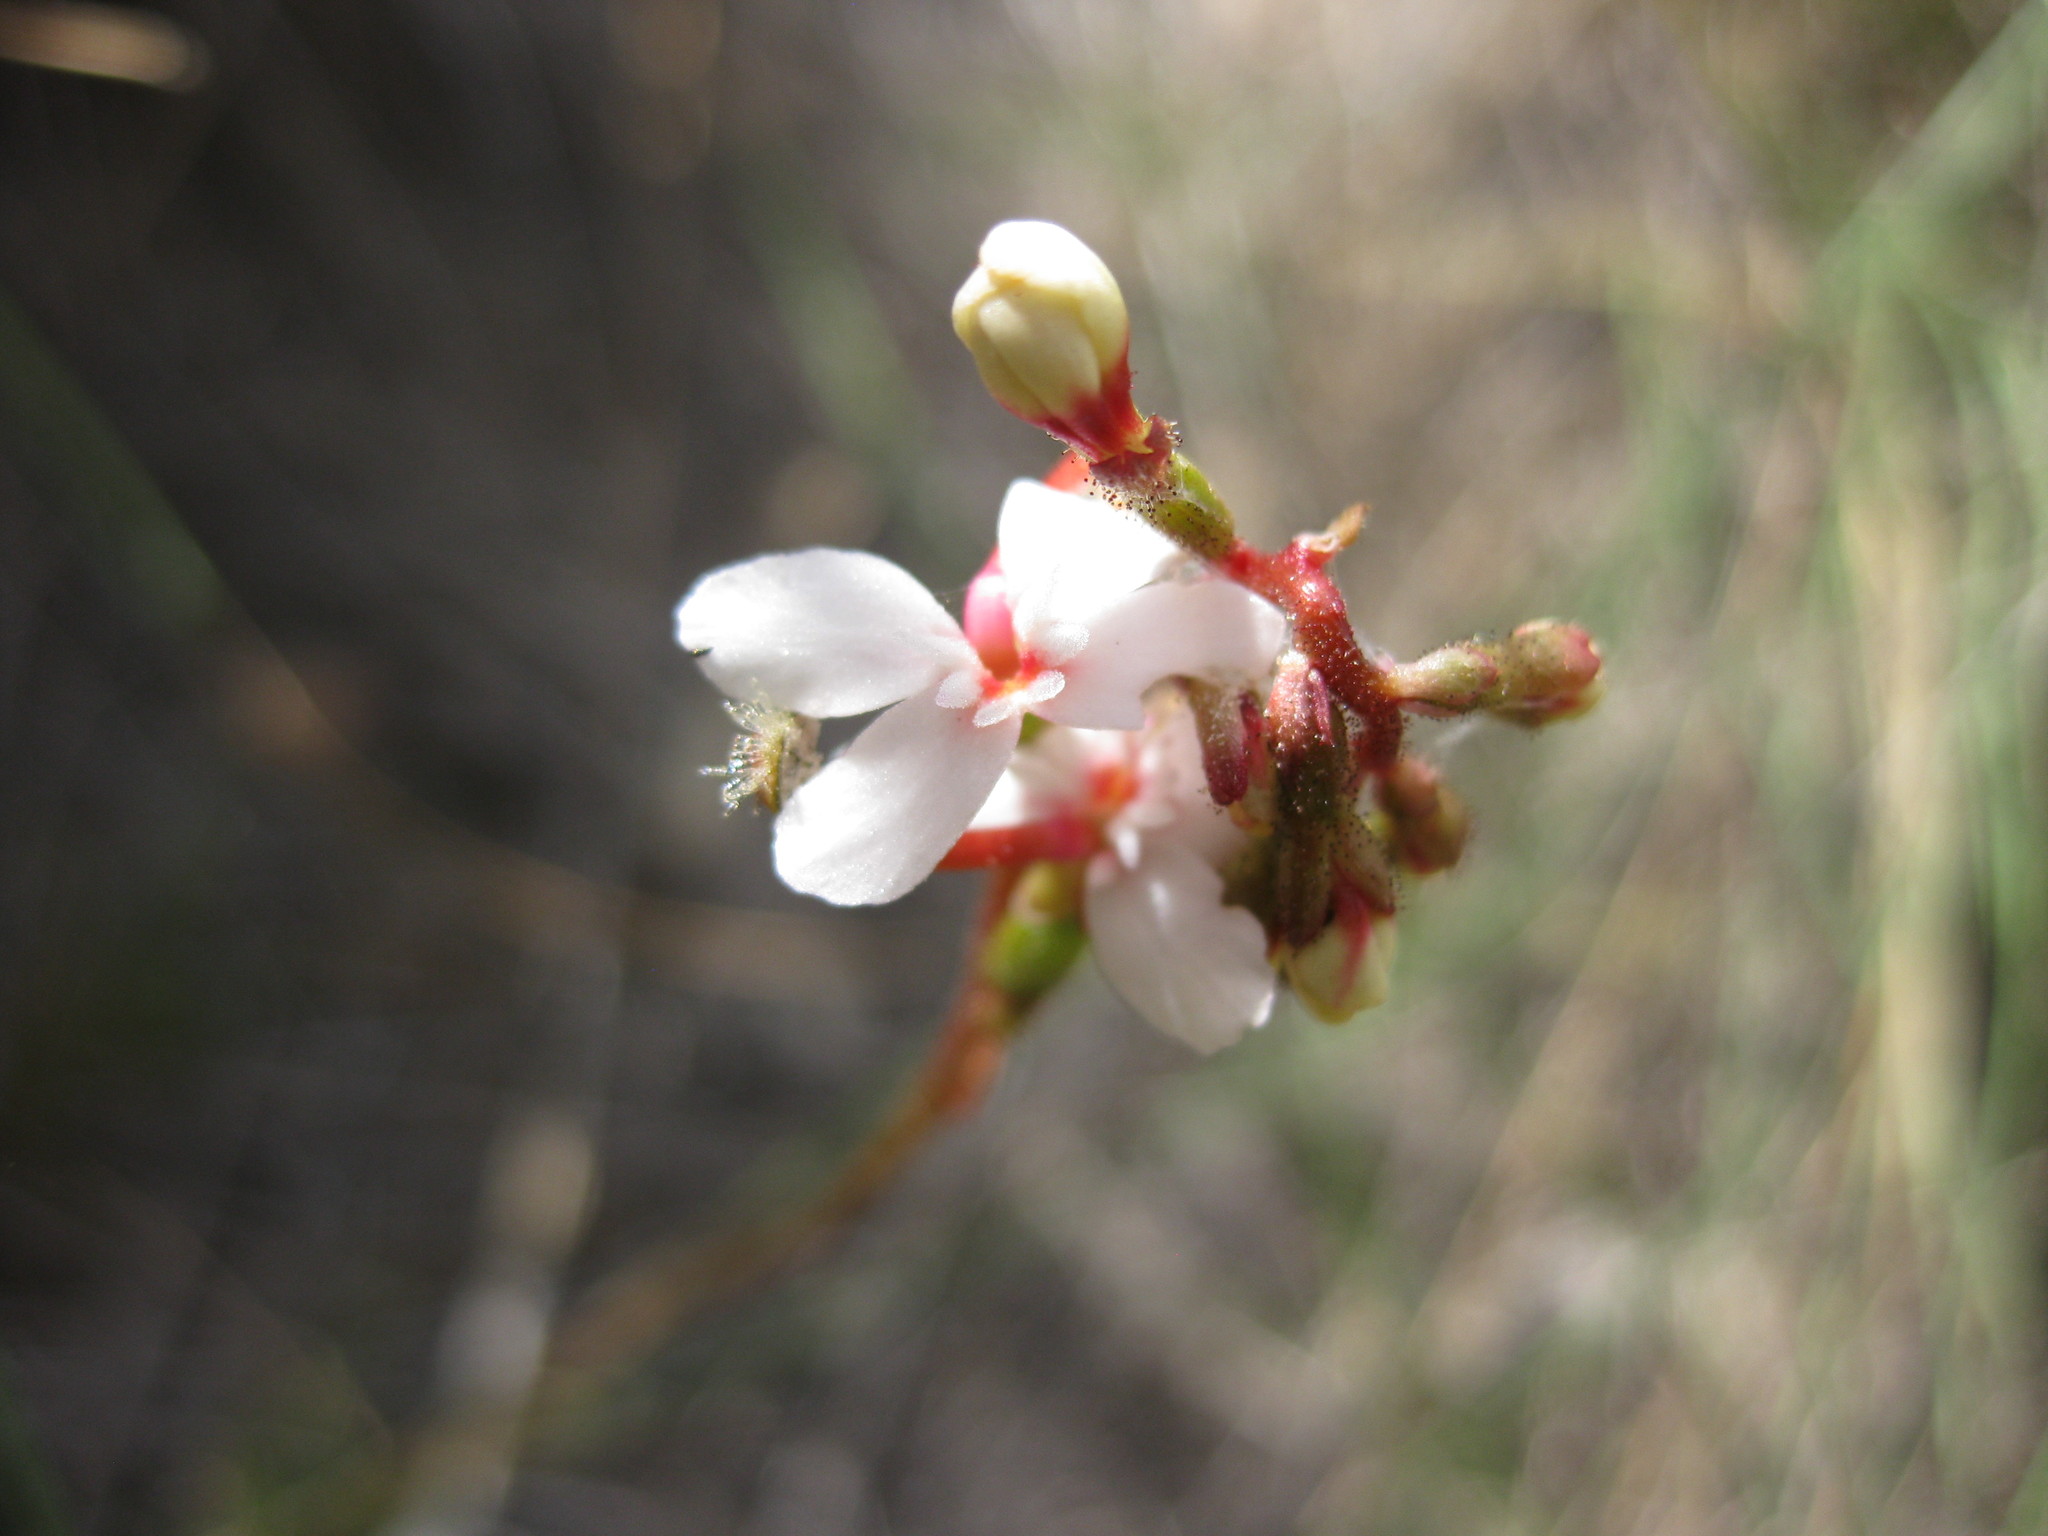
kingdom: Plantae
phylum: Tracheophyta
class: Magnoliopsida
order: Asterales
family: Stylidiaceae
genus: Stylidium
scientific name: Stylidium graminifolium
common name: Grass triggerplant
